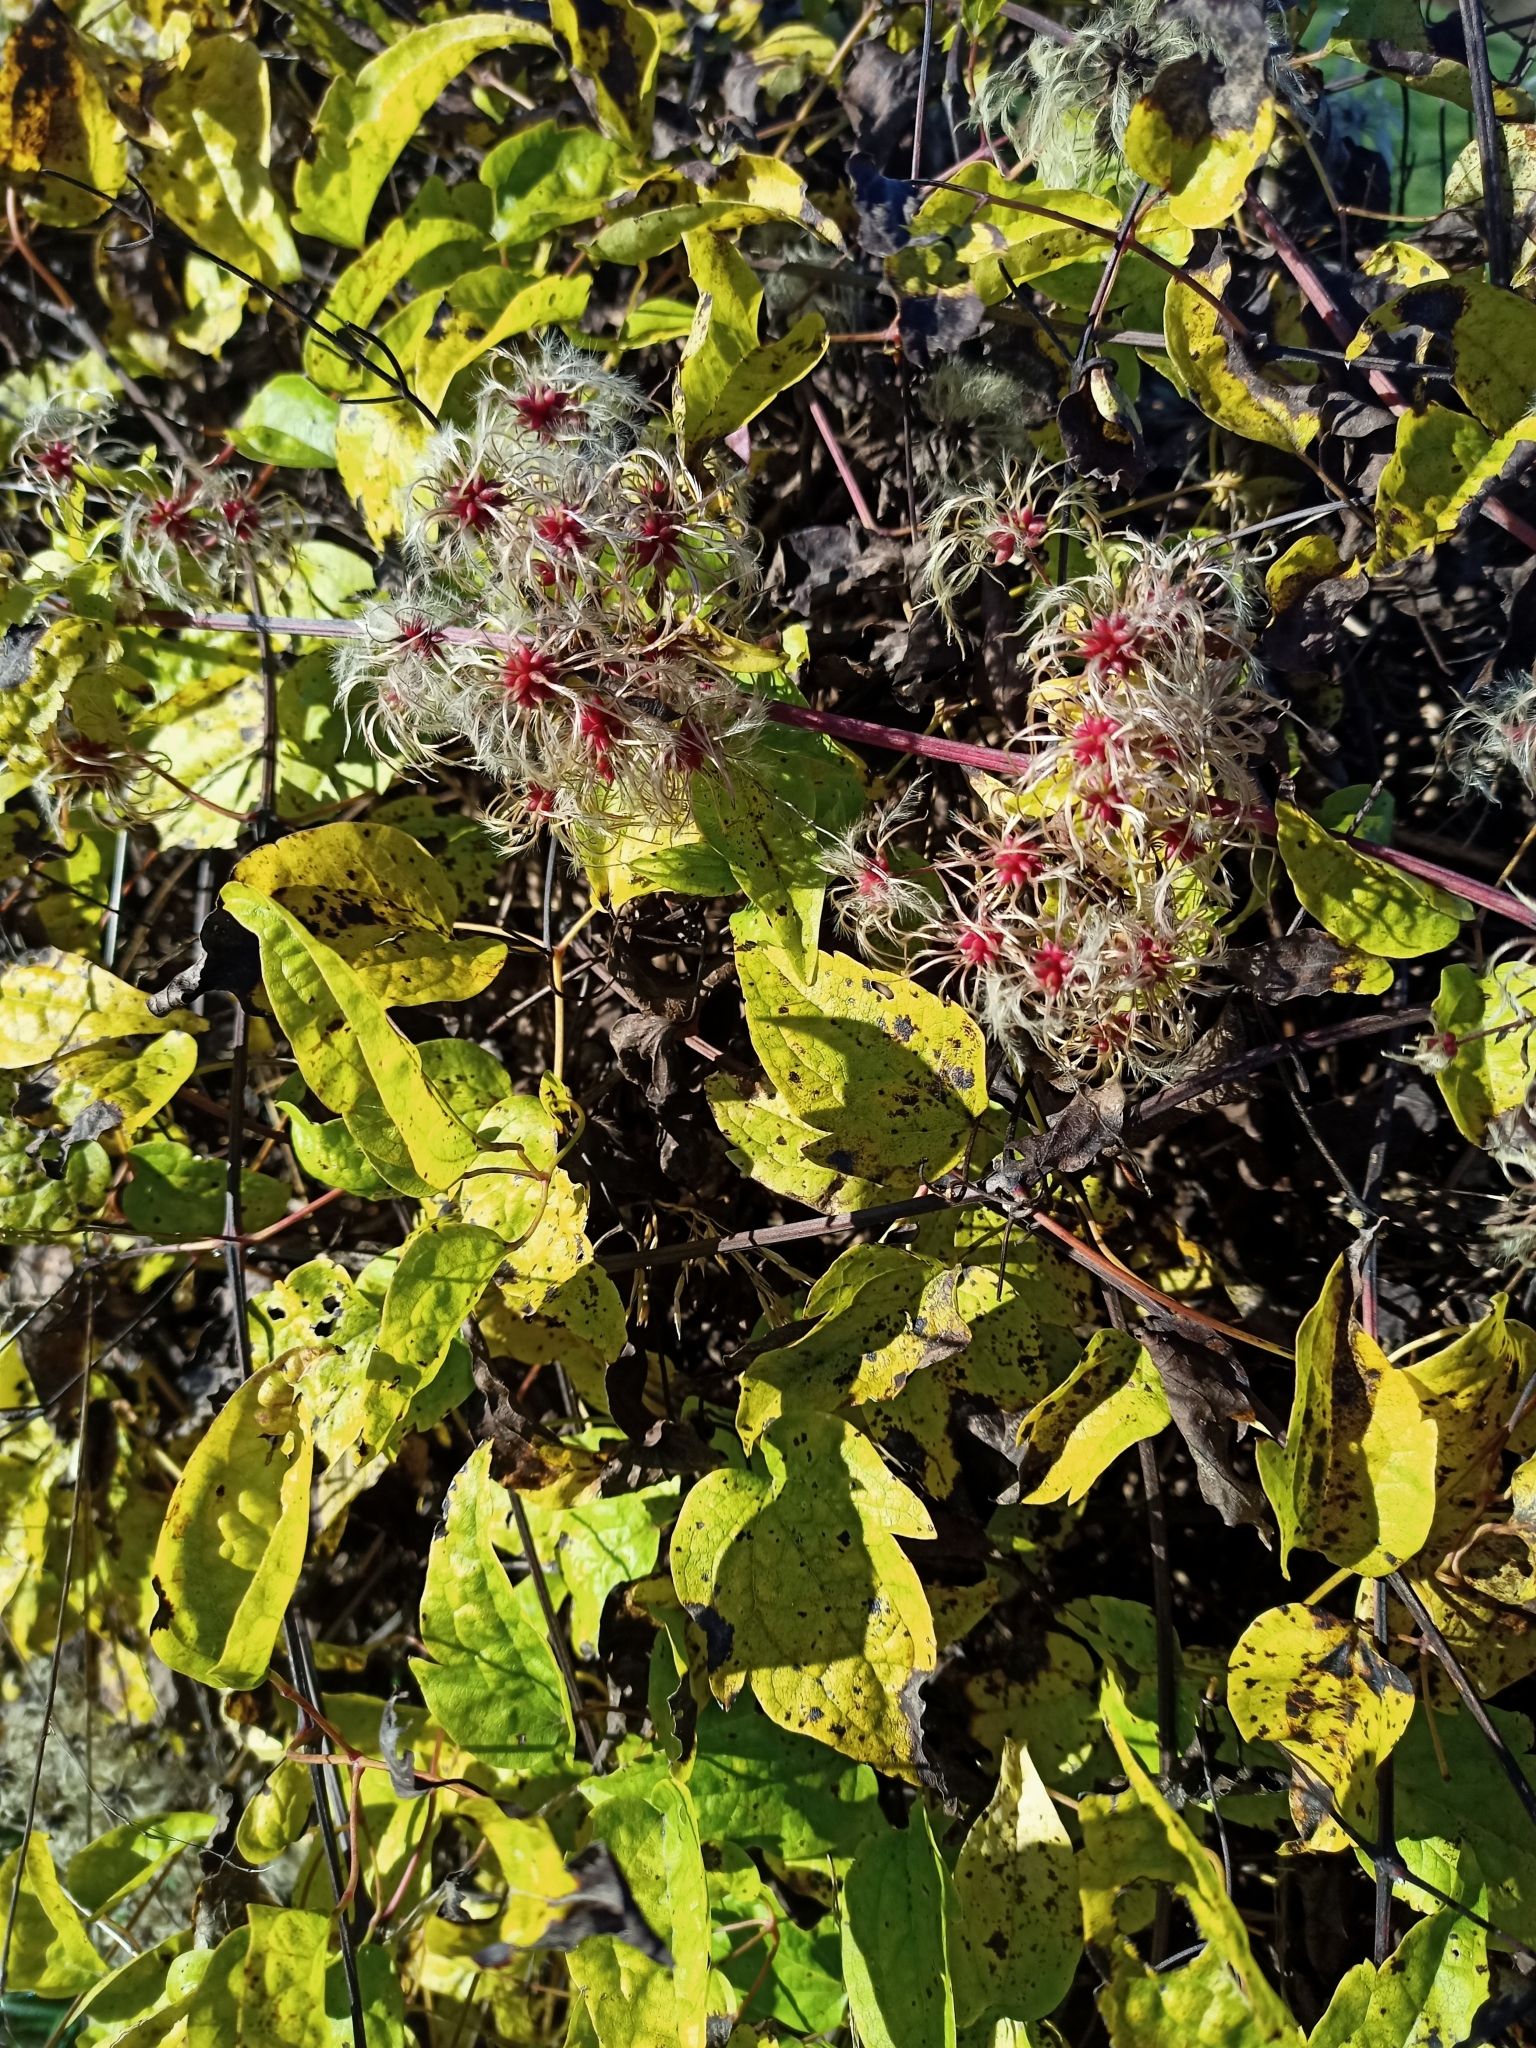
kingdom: Plantae
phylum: Tracheophyta
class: Magnoliopsida
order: Ranunculales
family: Ranunculaceae
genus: Clematis
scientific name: Clematis vitalba
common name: Evergreen clematis
